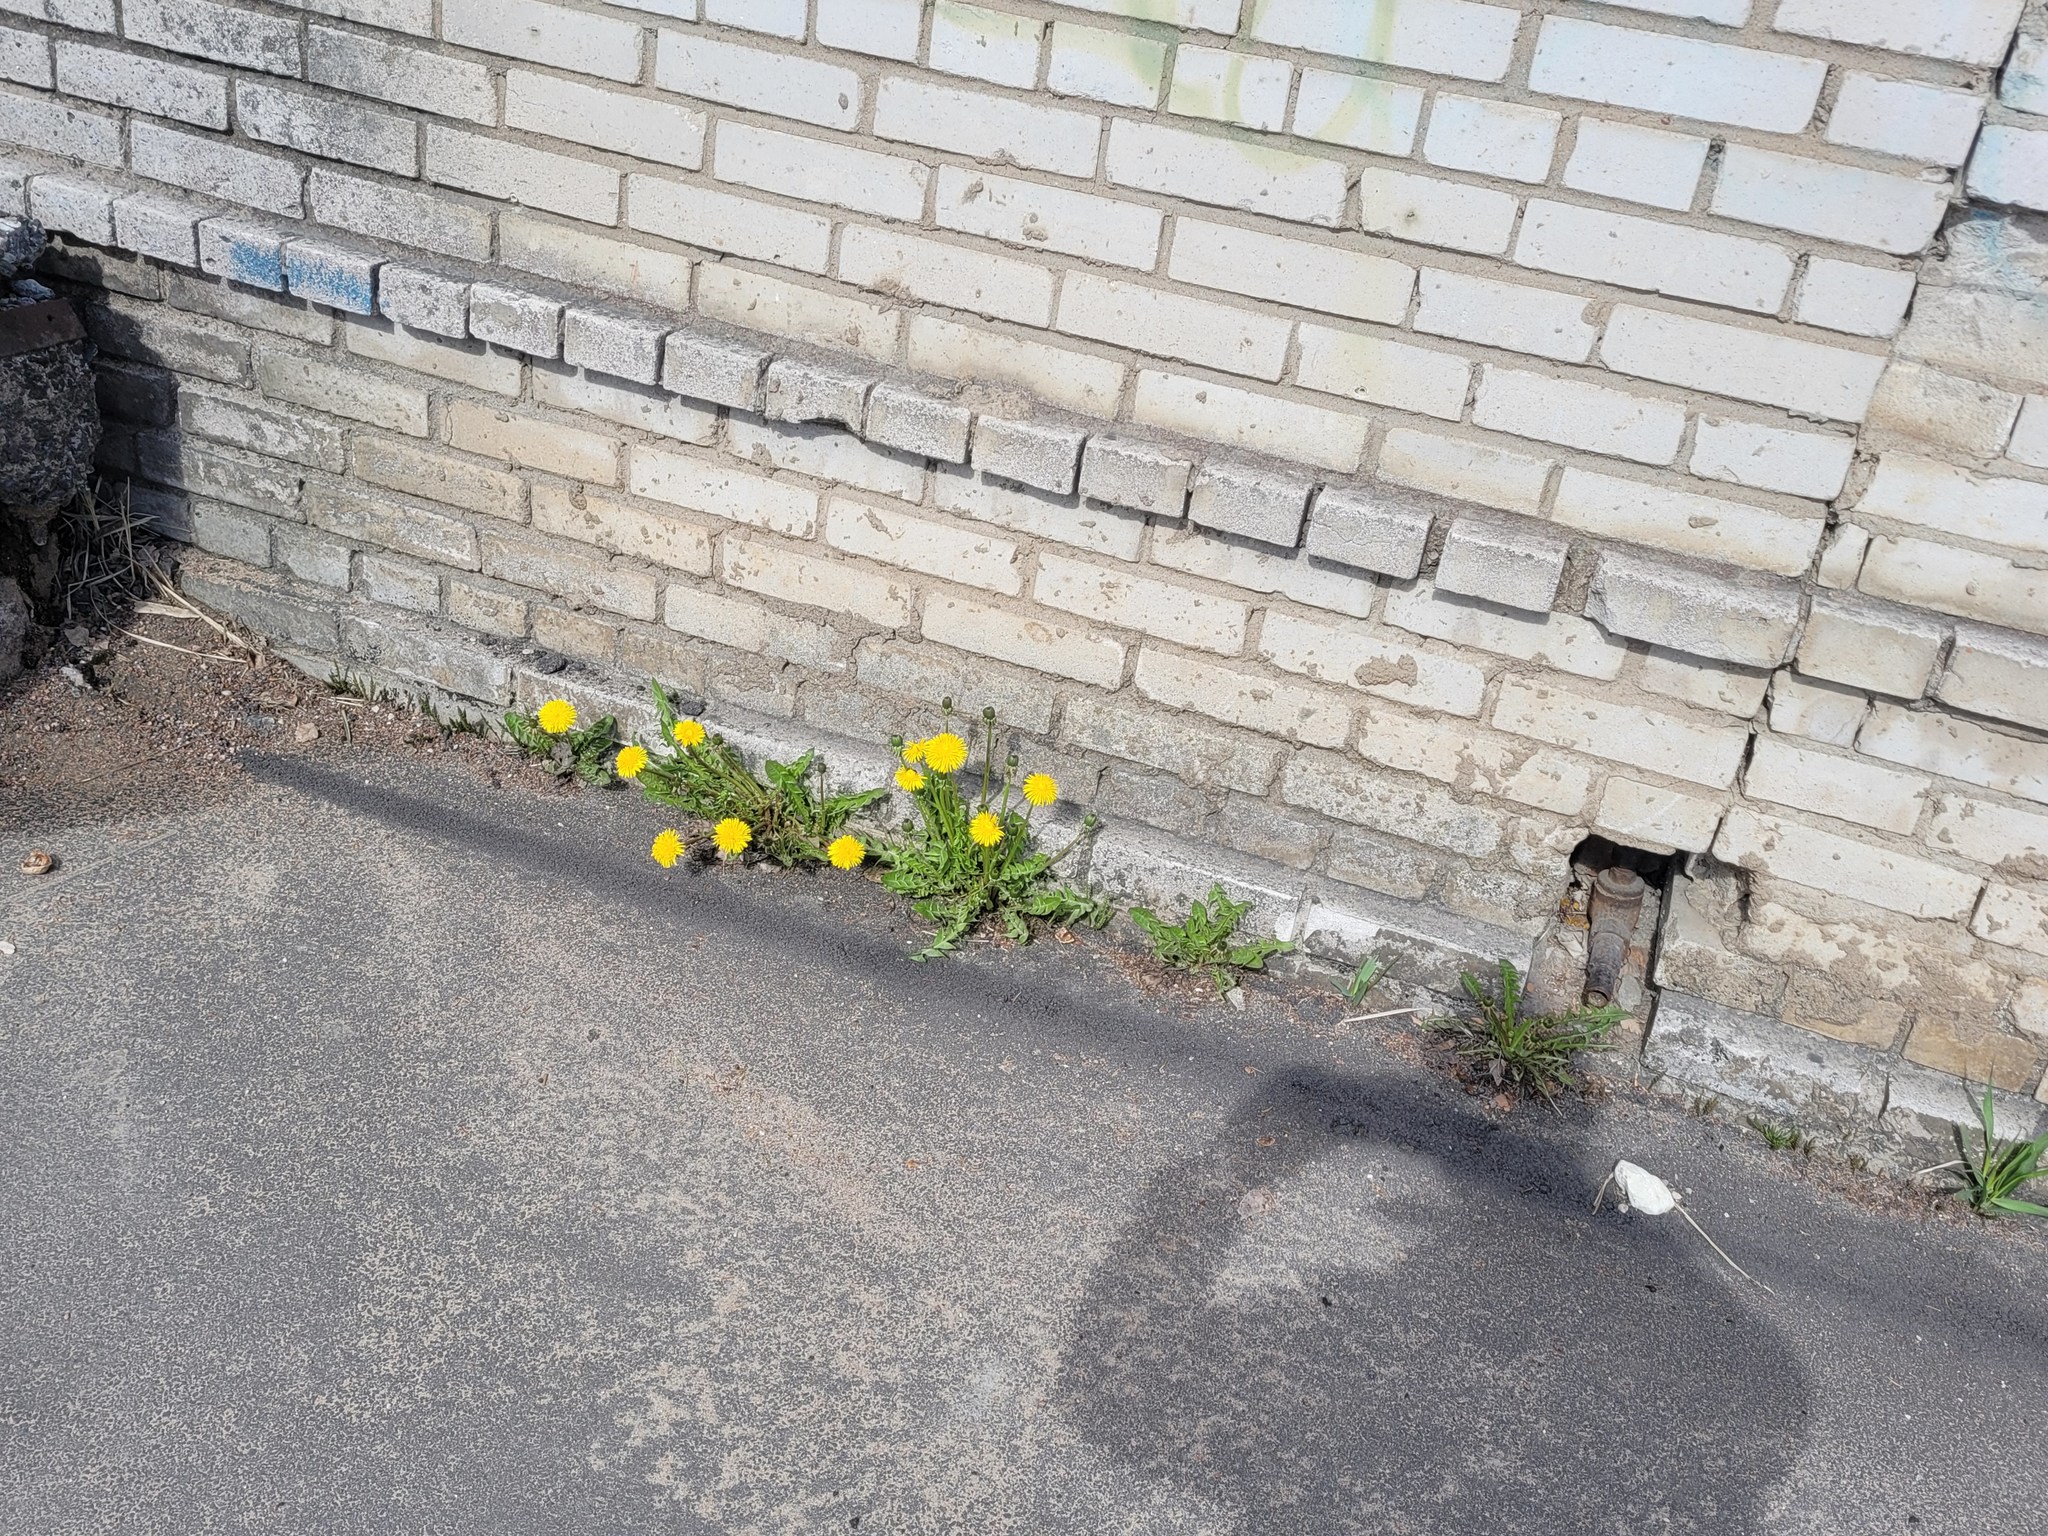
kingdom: Plantae
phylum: Tracheophyta
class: Magnoliopsida
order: Asterales
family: Asteraceae
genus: Taraxacum
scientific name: Taraxacum officinale
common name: Common dandelion
